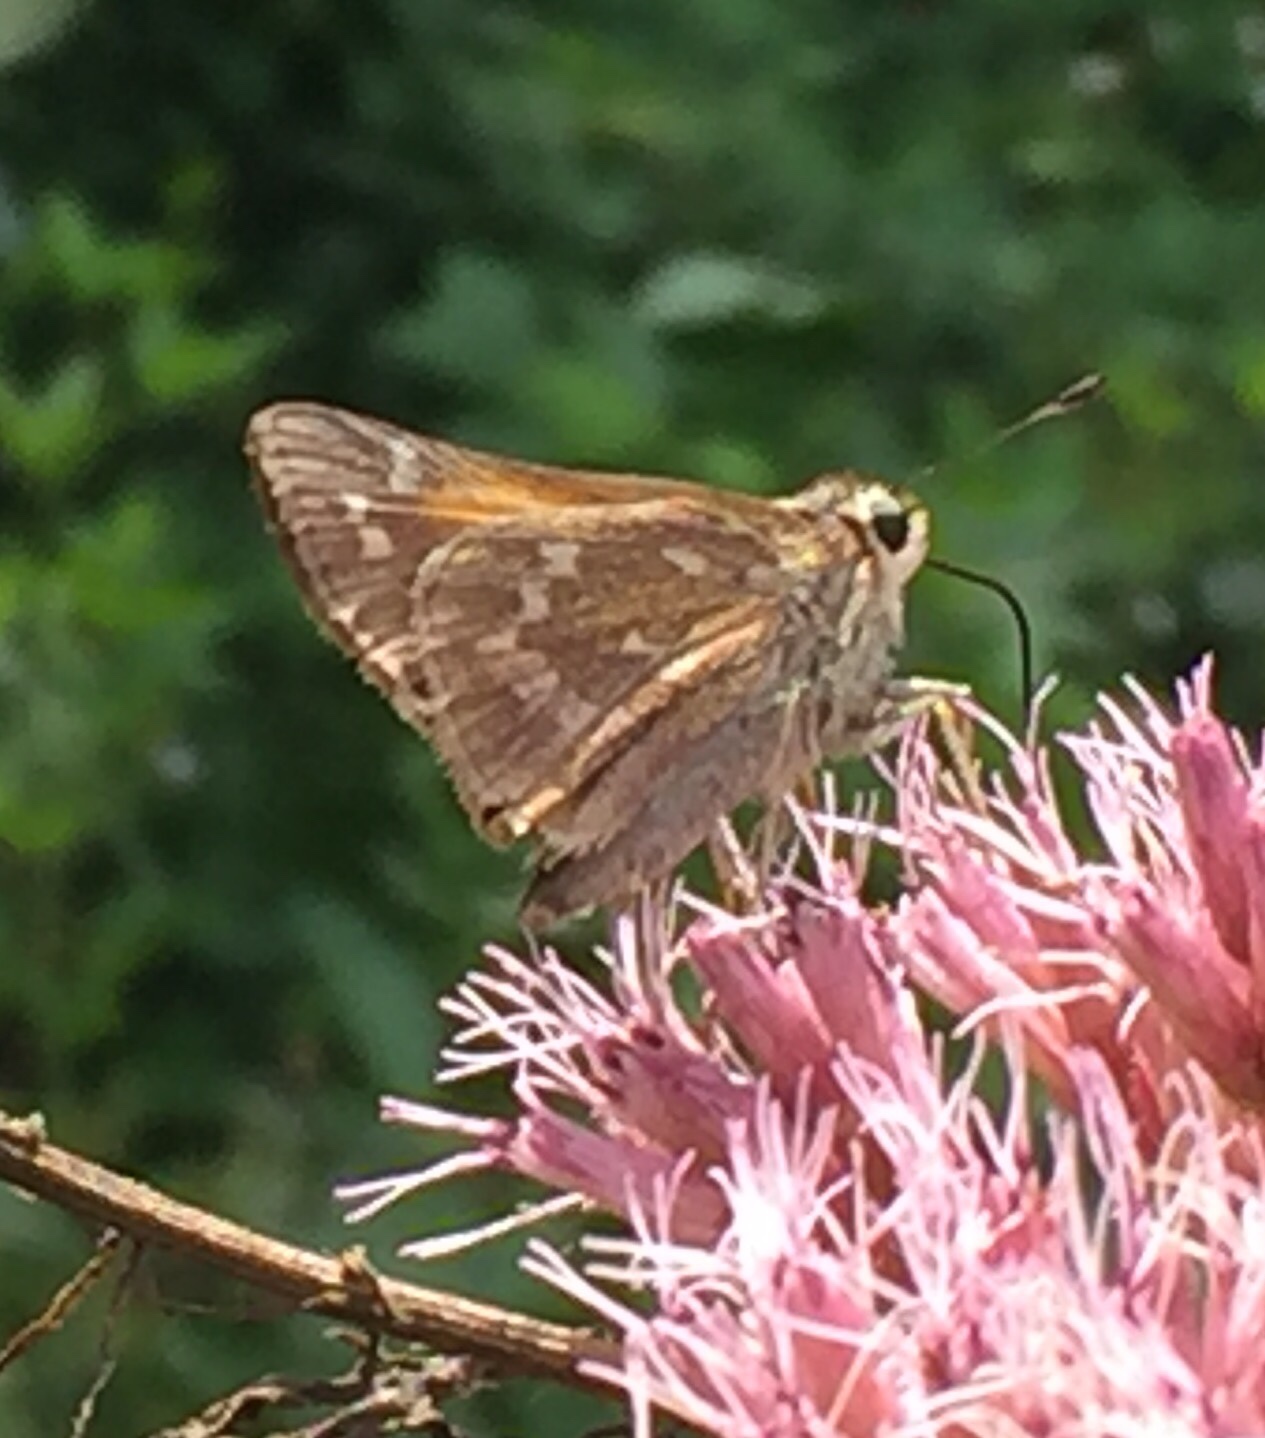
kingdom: Animalia
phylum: Arthropoda
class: Insecta
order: Lepidoptera
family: Hesperiidae
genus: Atalopedes
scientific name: Atalopedes
